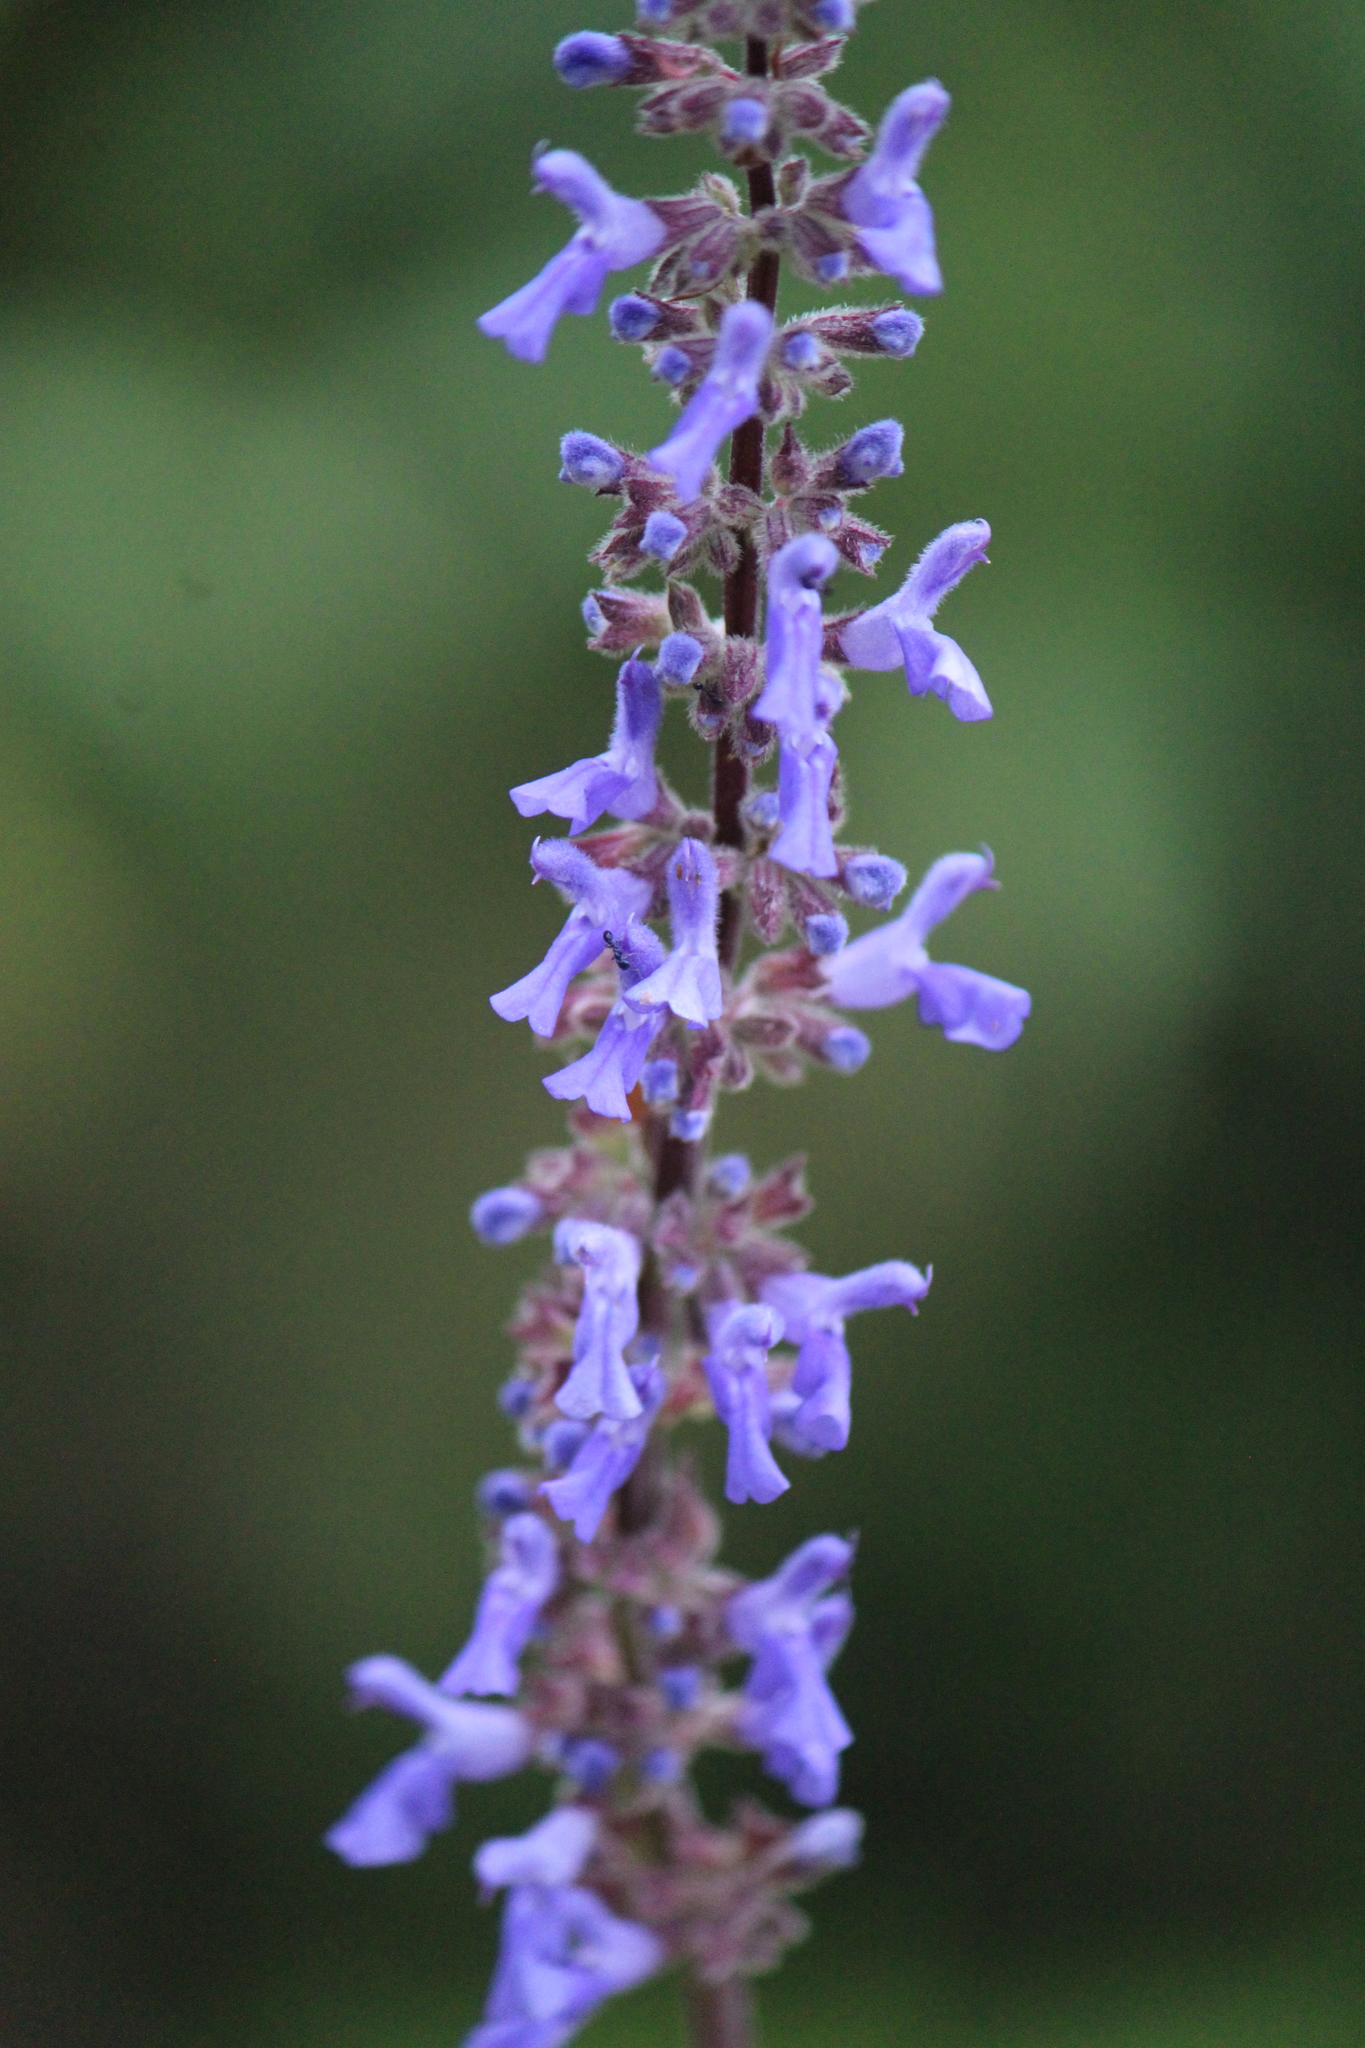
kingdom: Plantae
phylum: Tracheophyta
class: Magnoliopsida
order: Lamiales
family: Lamiaceae
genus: Salvia
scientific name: Salvia polystachia
